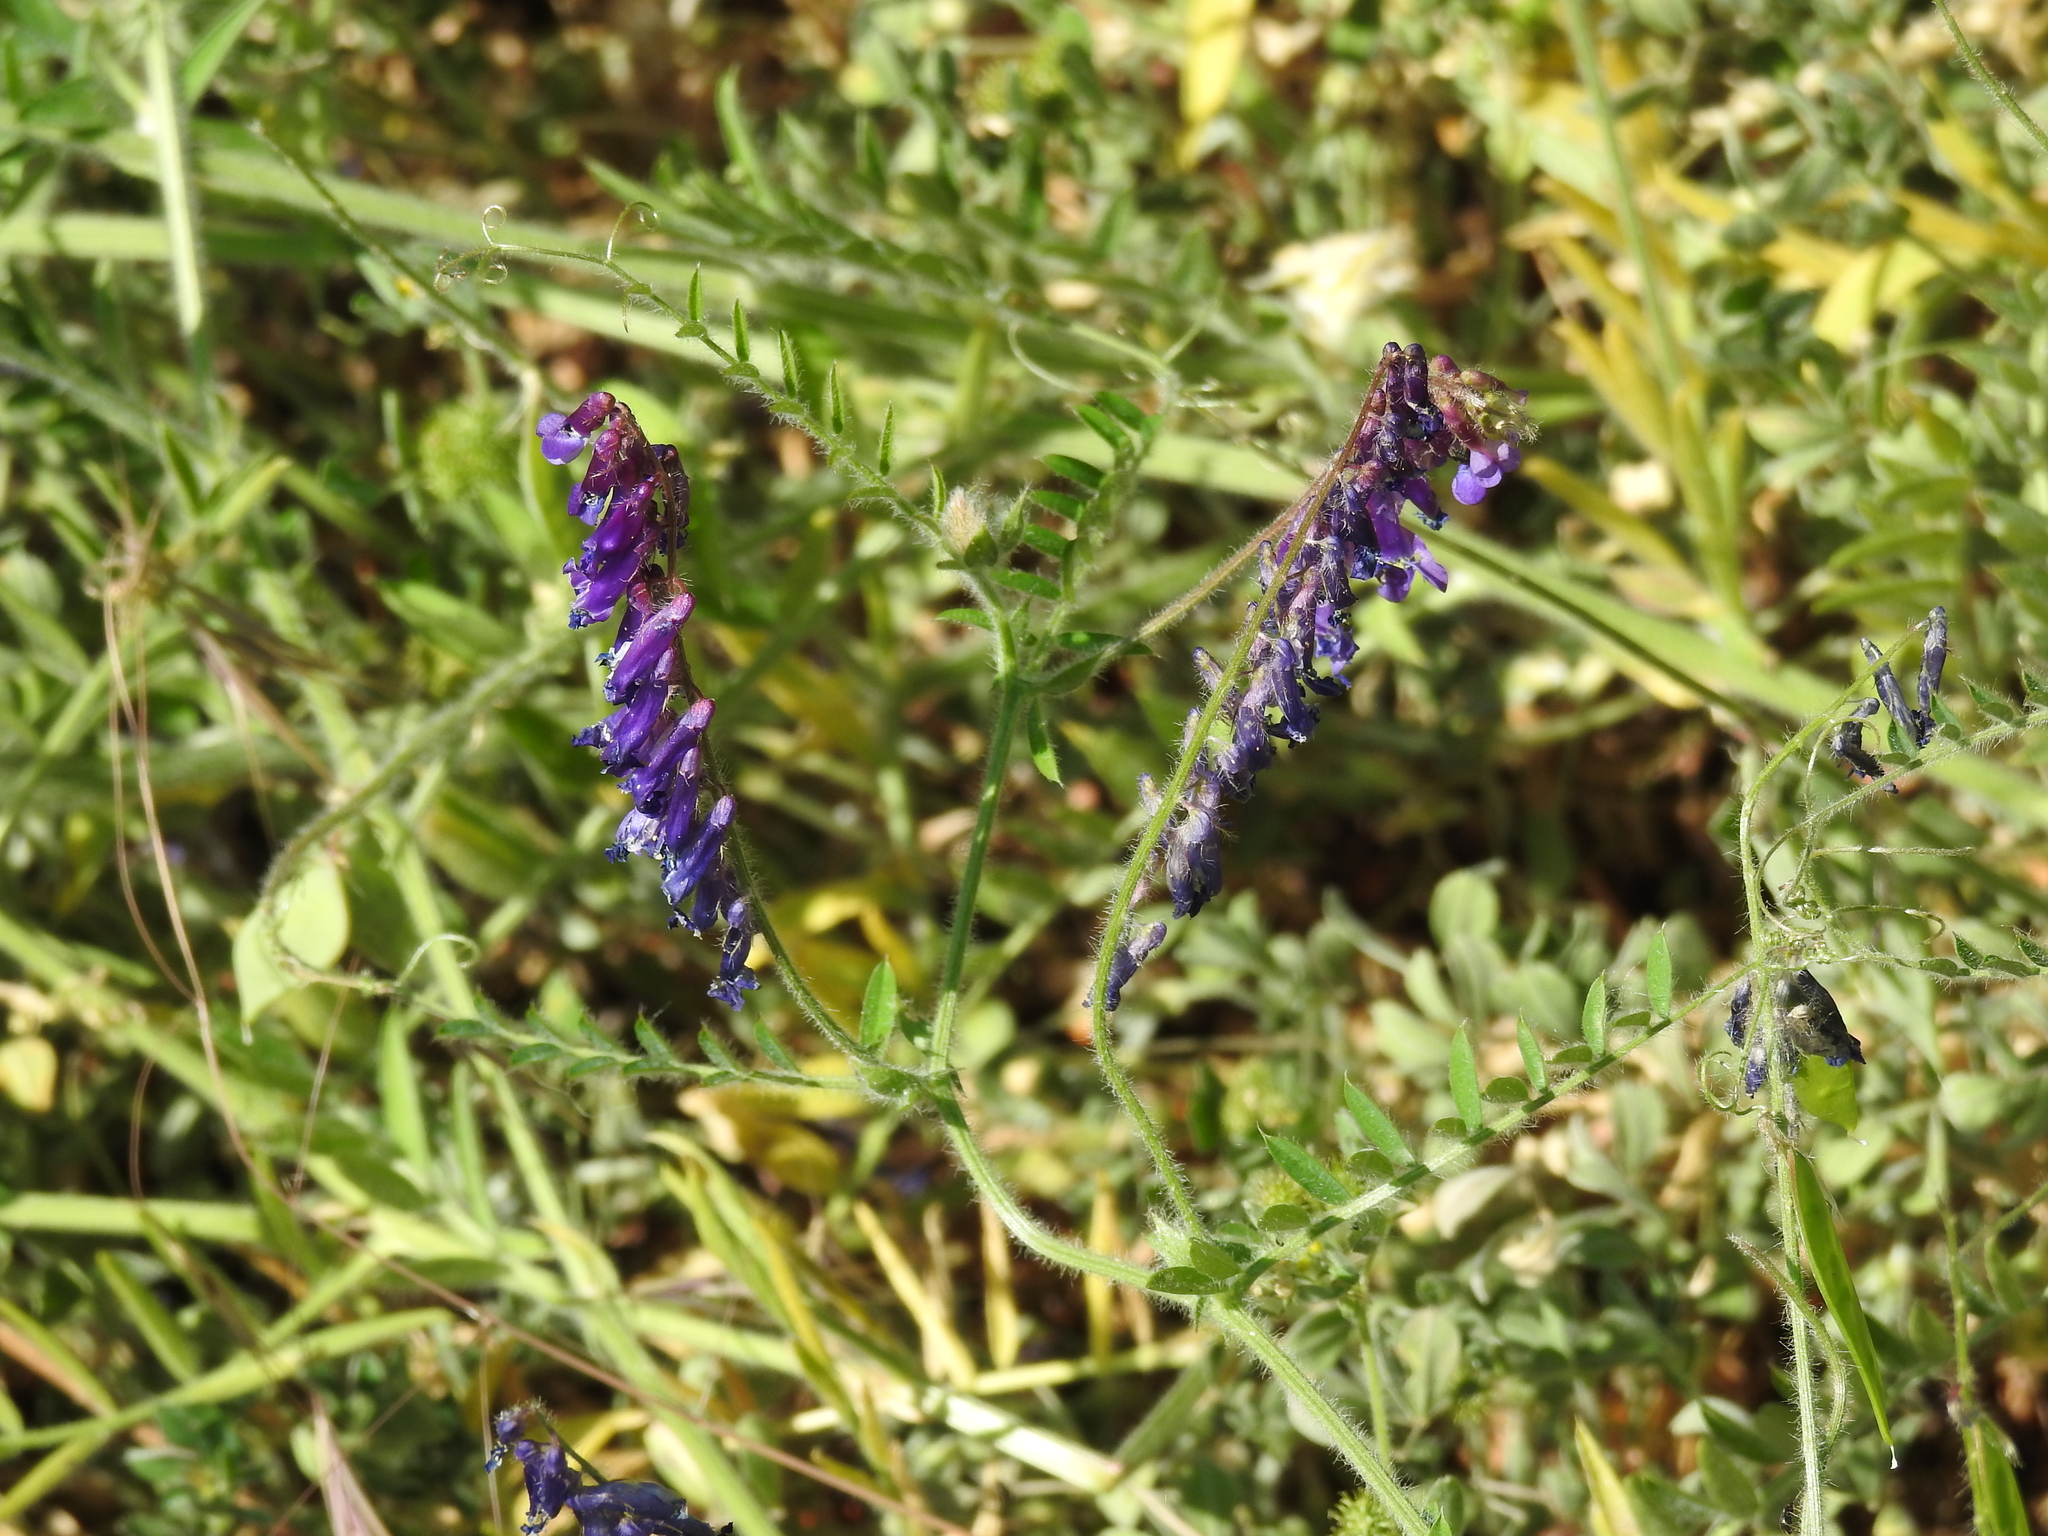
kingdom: Plantae
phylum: Tracheophyta
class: Magnoliopsida
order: Fabales
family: Fabaceae
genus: Vicia
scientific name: Vicia villosa
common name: Fodder vetch
